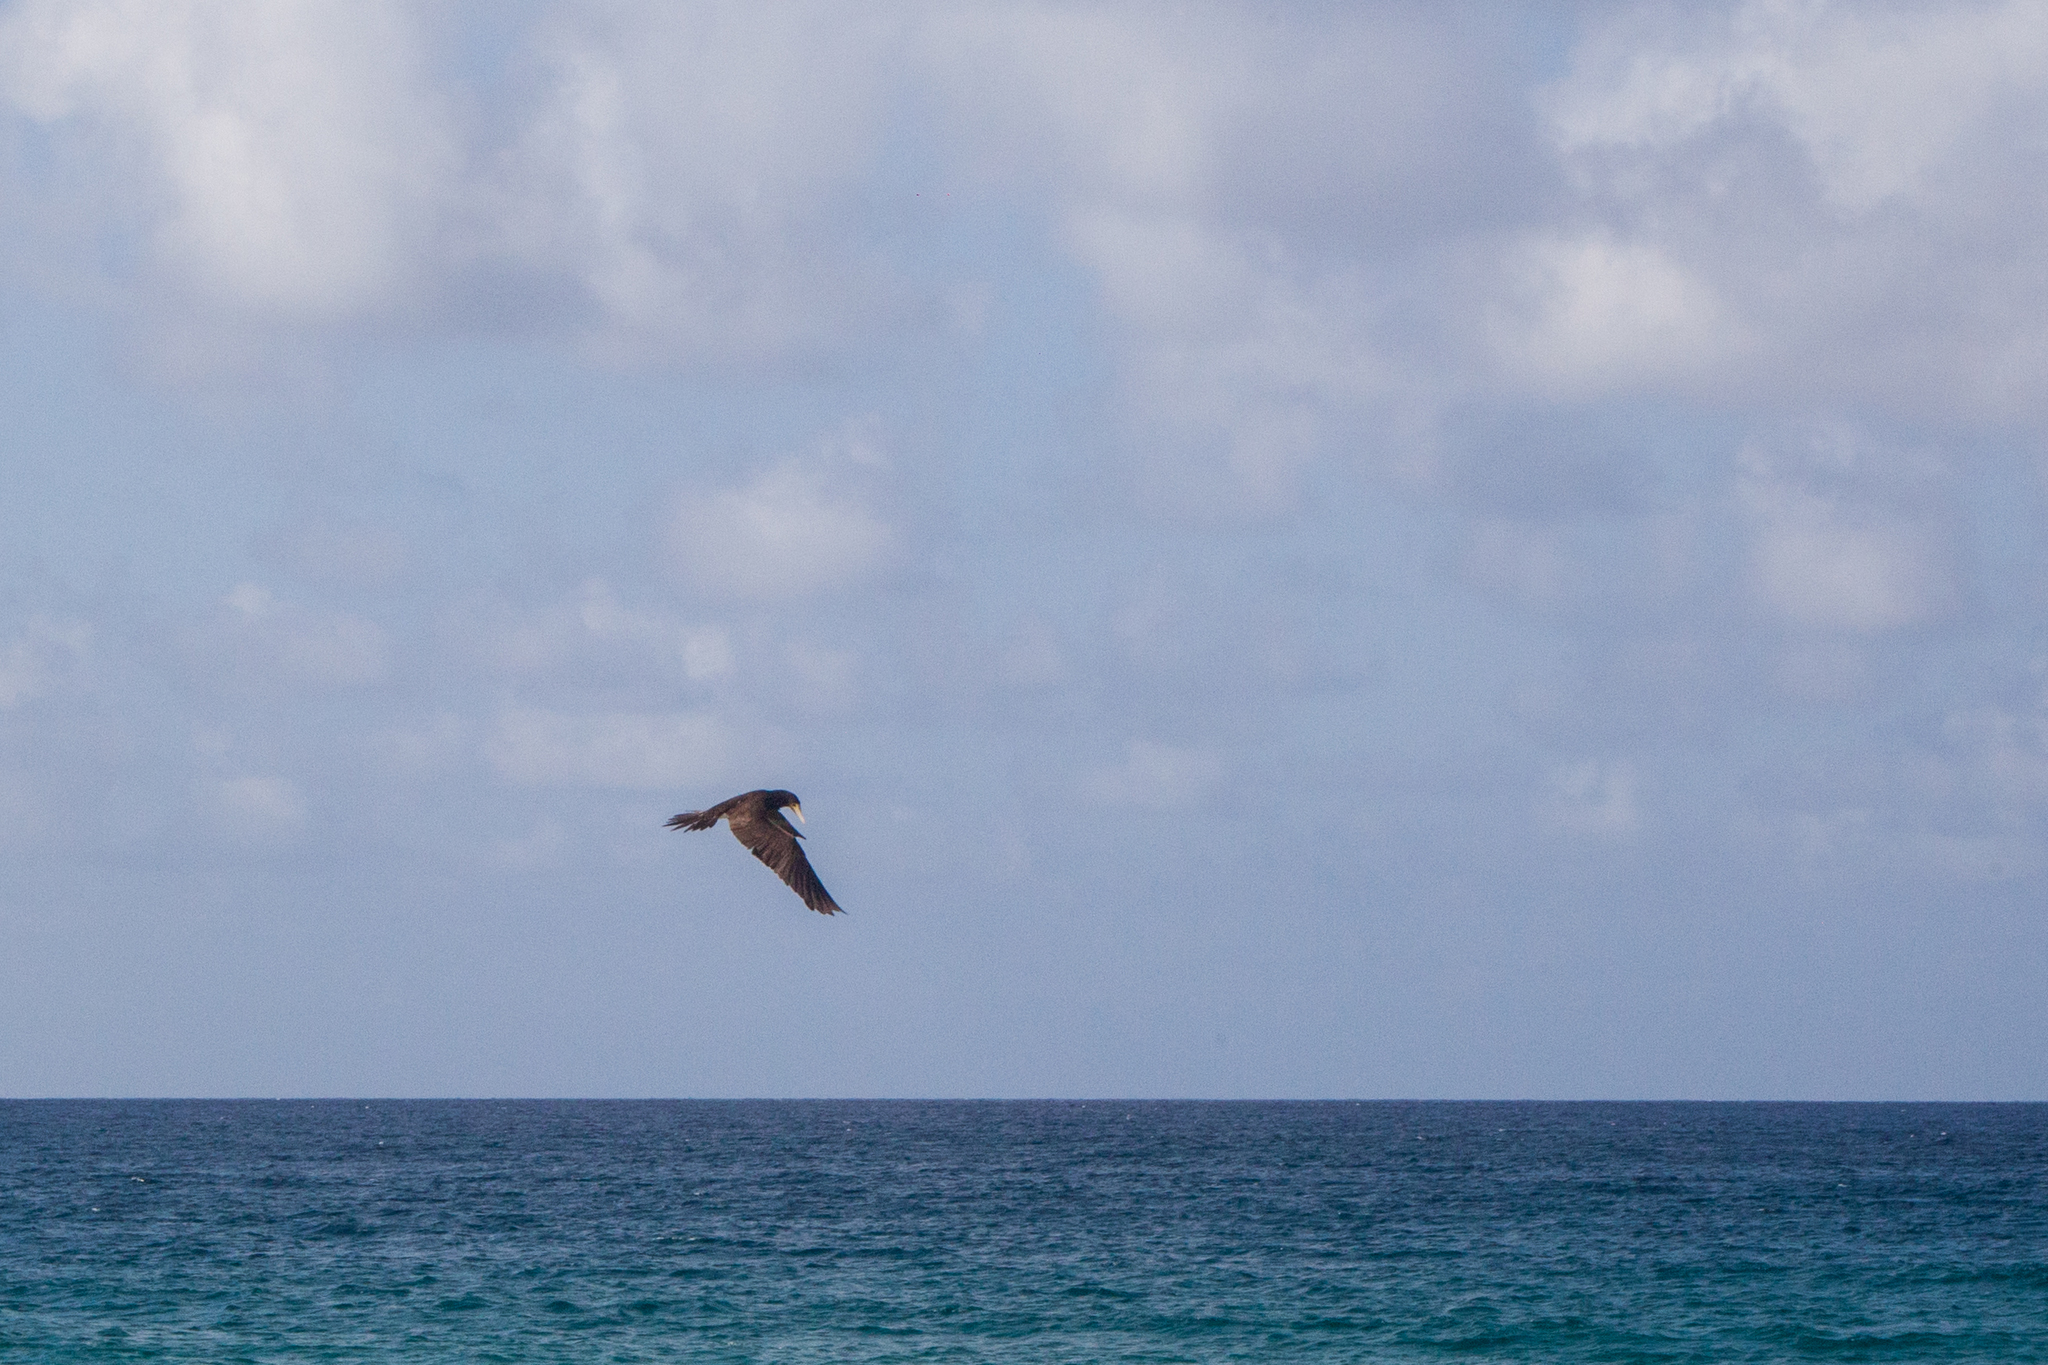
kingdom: Animalia
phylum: Chordata
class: Aves
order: Suliformes
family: Sulidae
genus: Sula
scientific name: Sula leucogaster
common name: Brown booby
